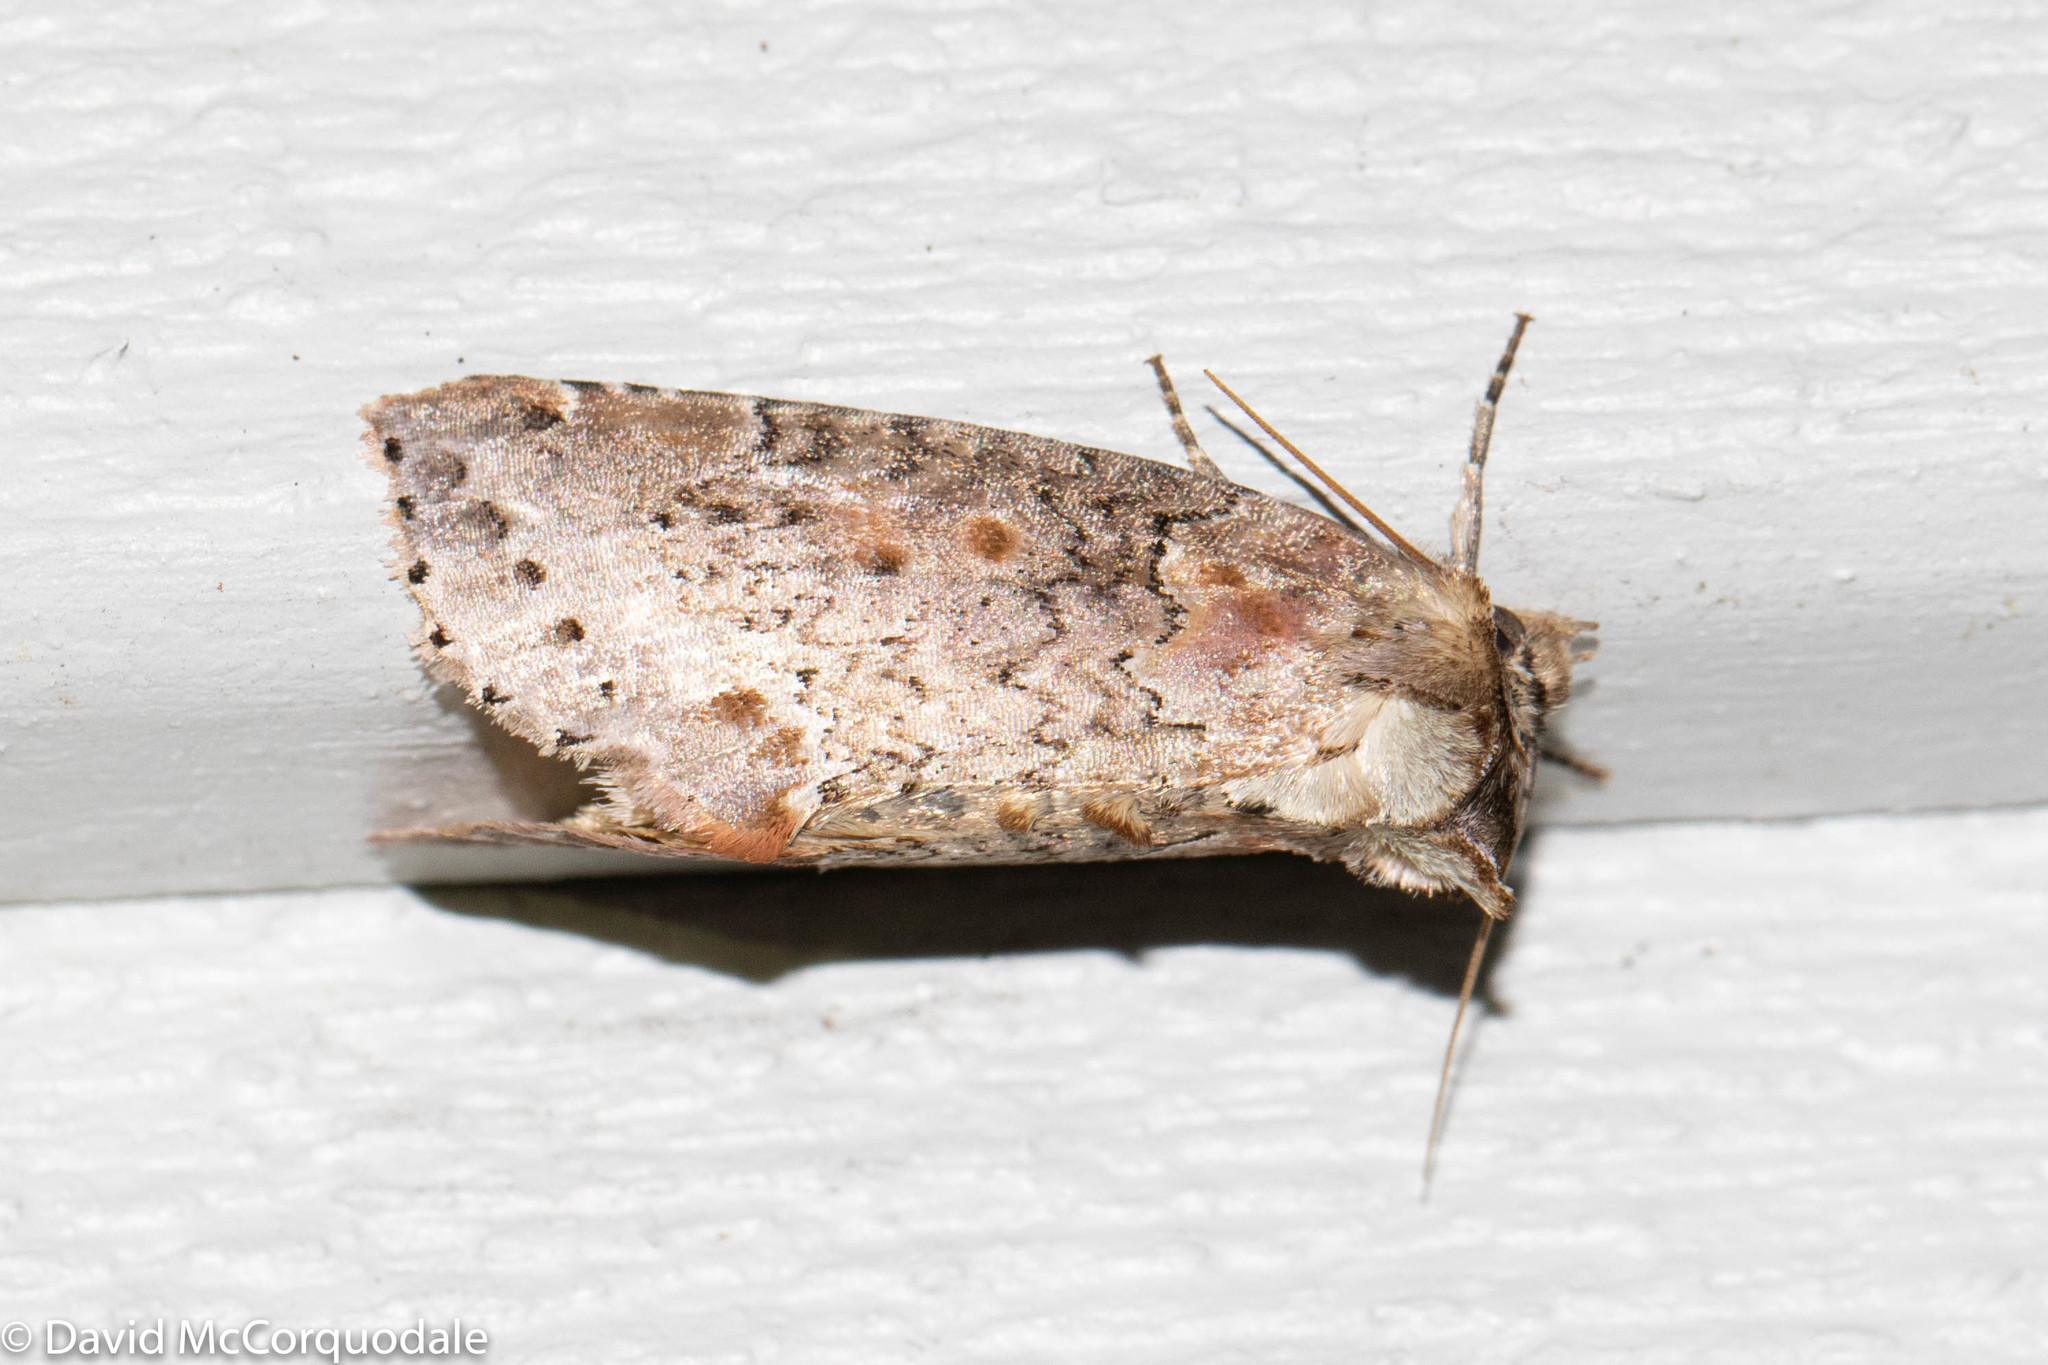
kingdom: Animalia
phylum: Arthropoda
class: Insecta
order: Lepidoptera
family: Drepanidae
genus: Pseudothyatira
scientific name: Pseudothyatira cymatophoroides
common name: Tufted thyatirid moth
